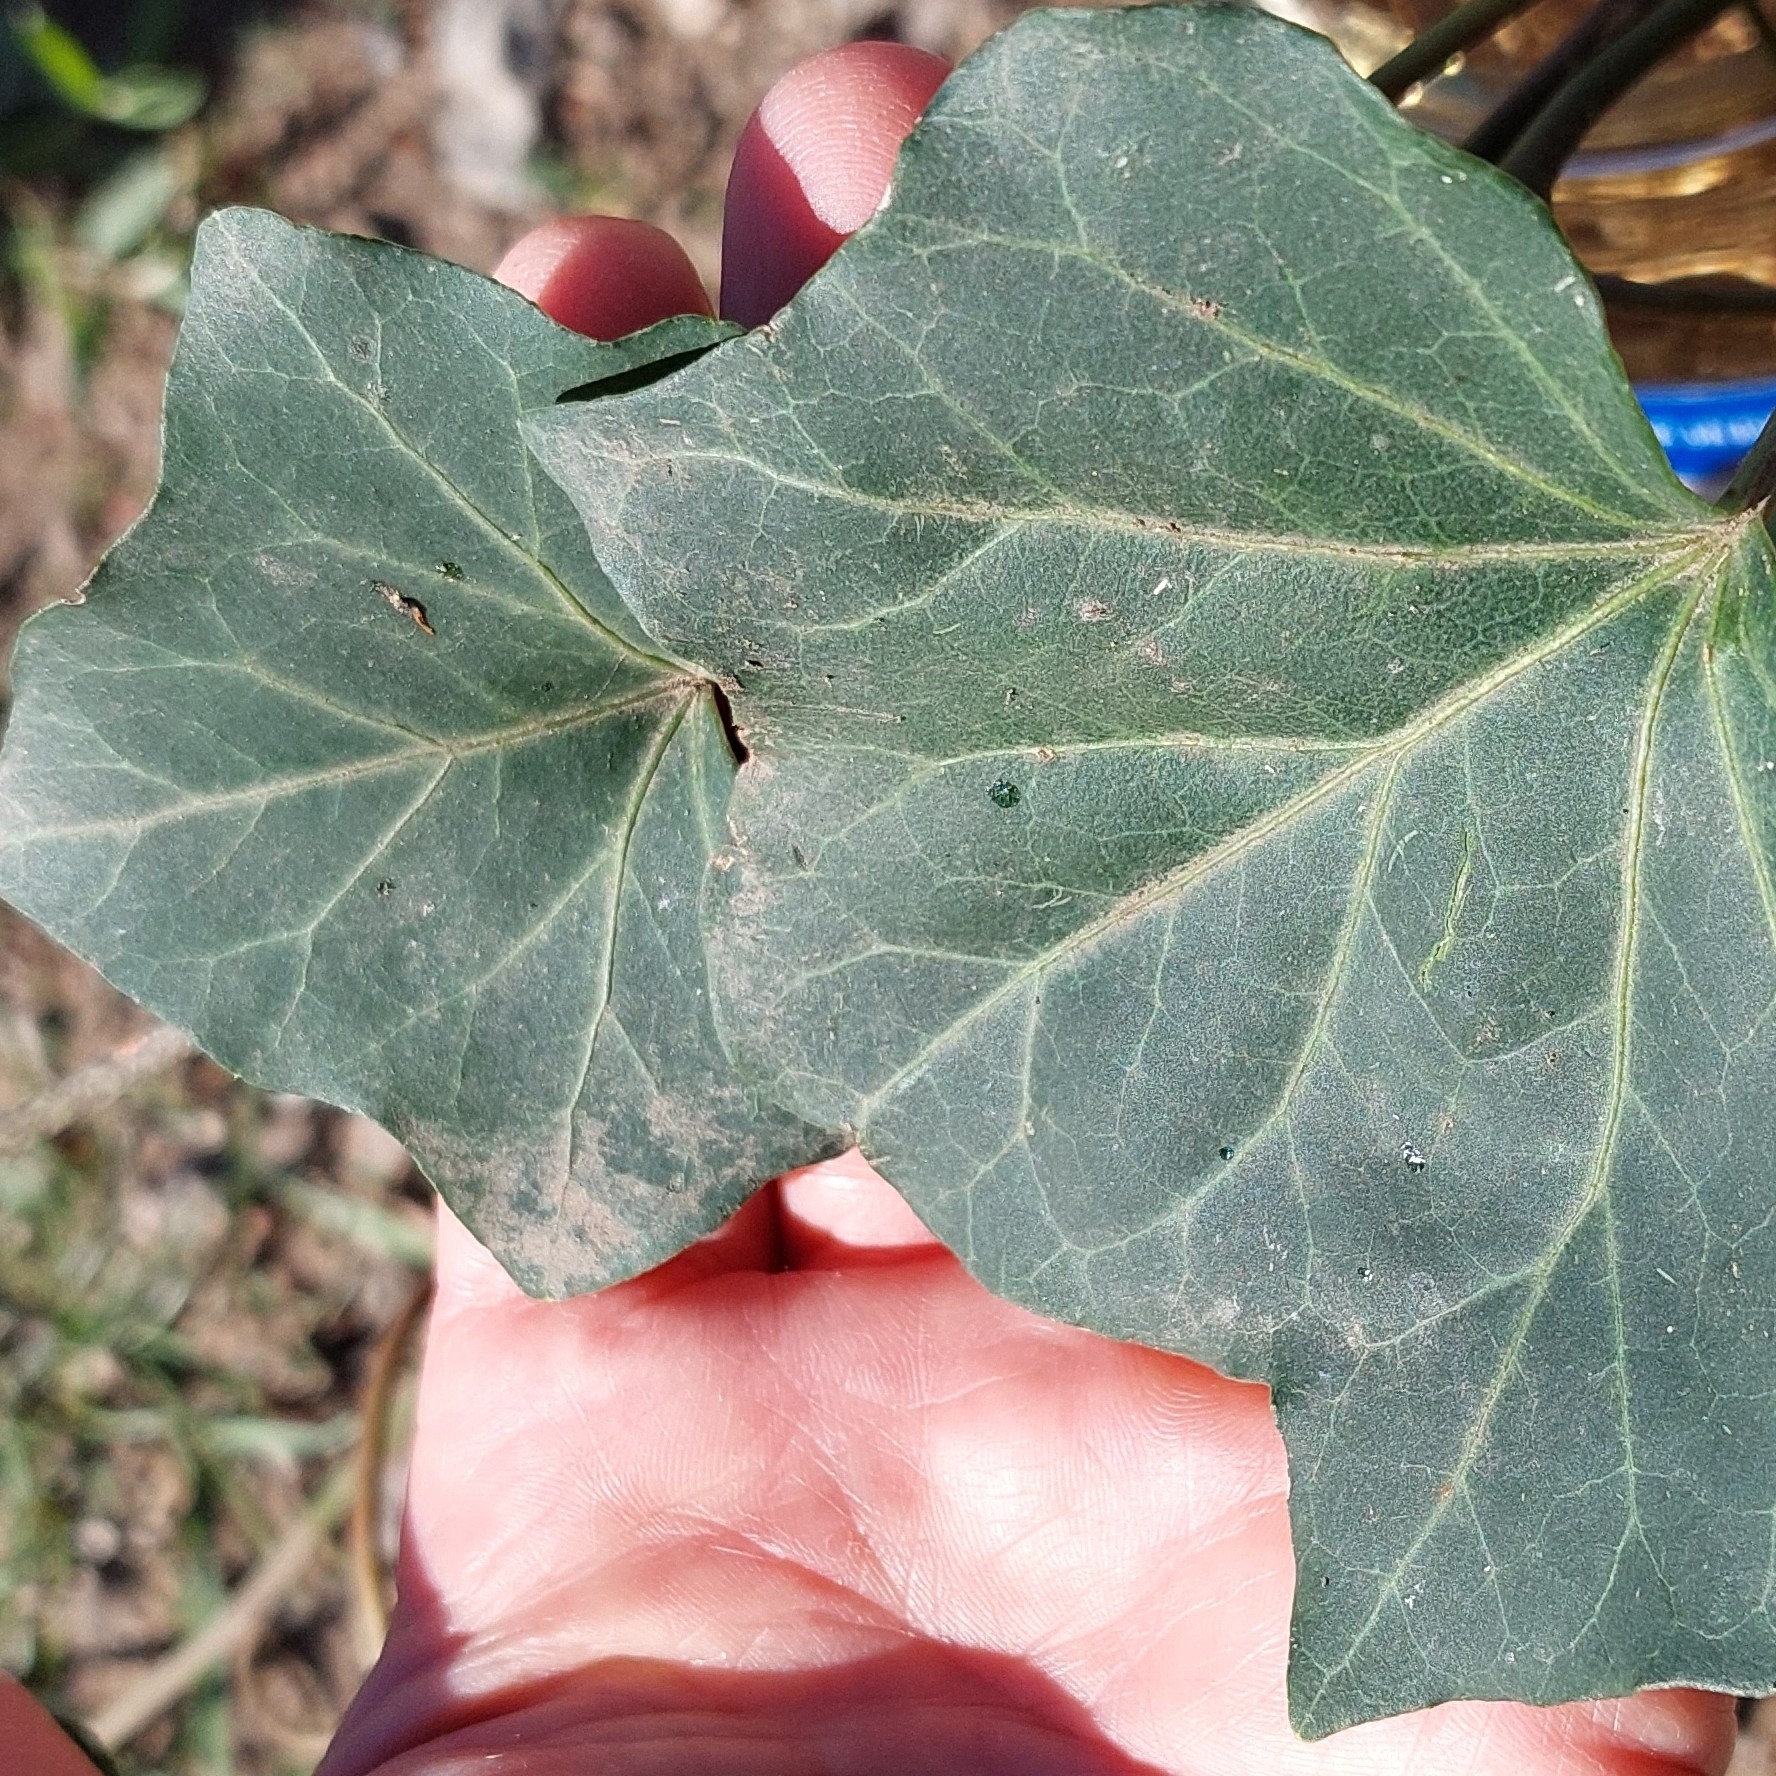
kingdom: Plantae
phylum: Tracheophyta
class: Magnoliopsida
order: Apiales
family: Araliaceae
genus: Hedera
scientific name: Hedera helix
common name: Ivy
